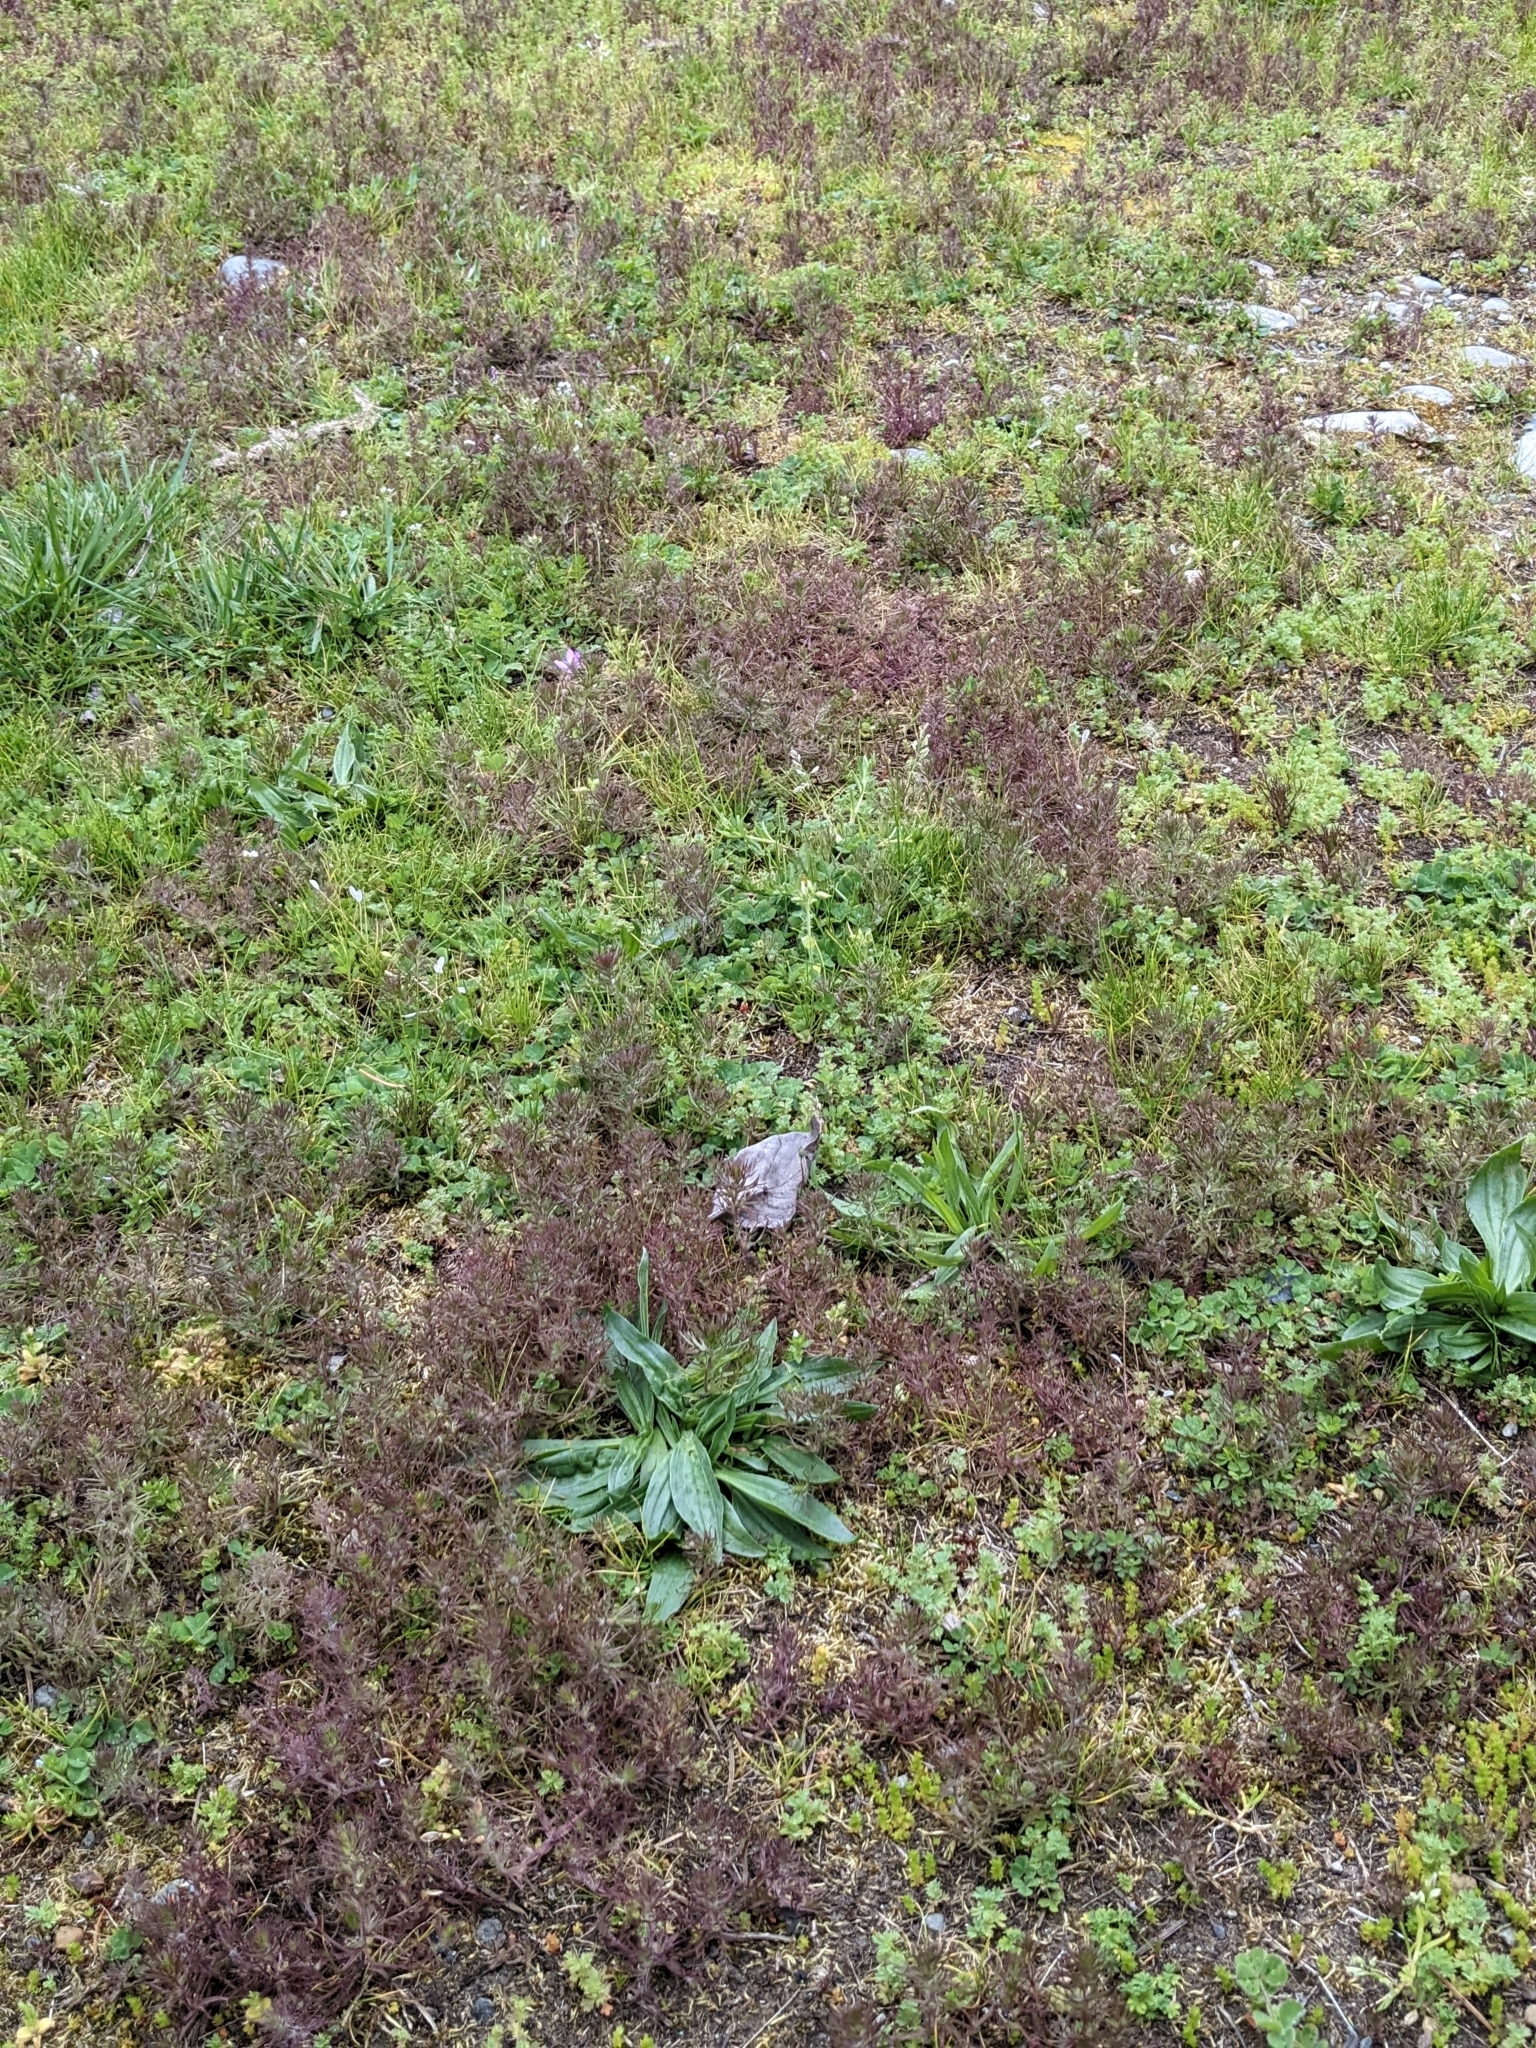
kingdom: Plantae
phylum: Tracheophyta
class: Magnoliopsida
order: Lamiales
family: Orobanchaceae
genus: Triphysaria
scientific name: Triphysaria pusilla
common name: Dwarf false owl-clover
